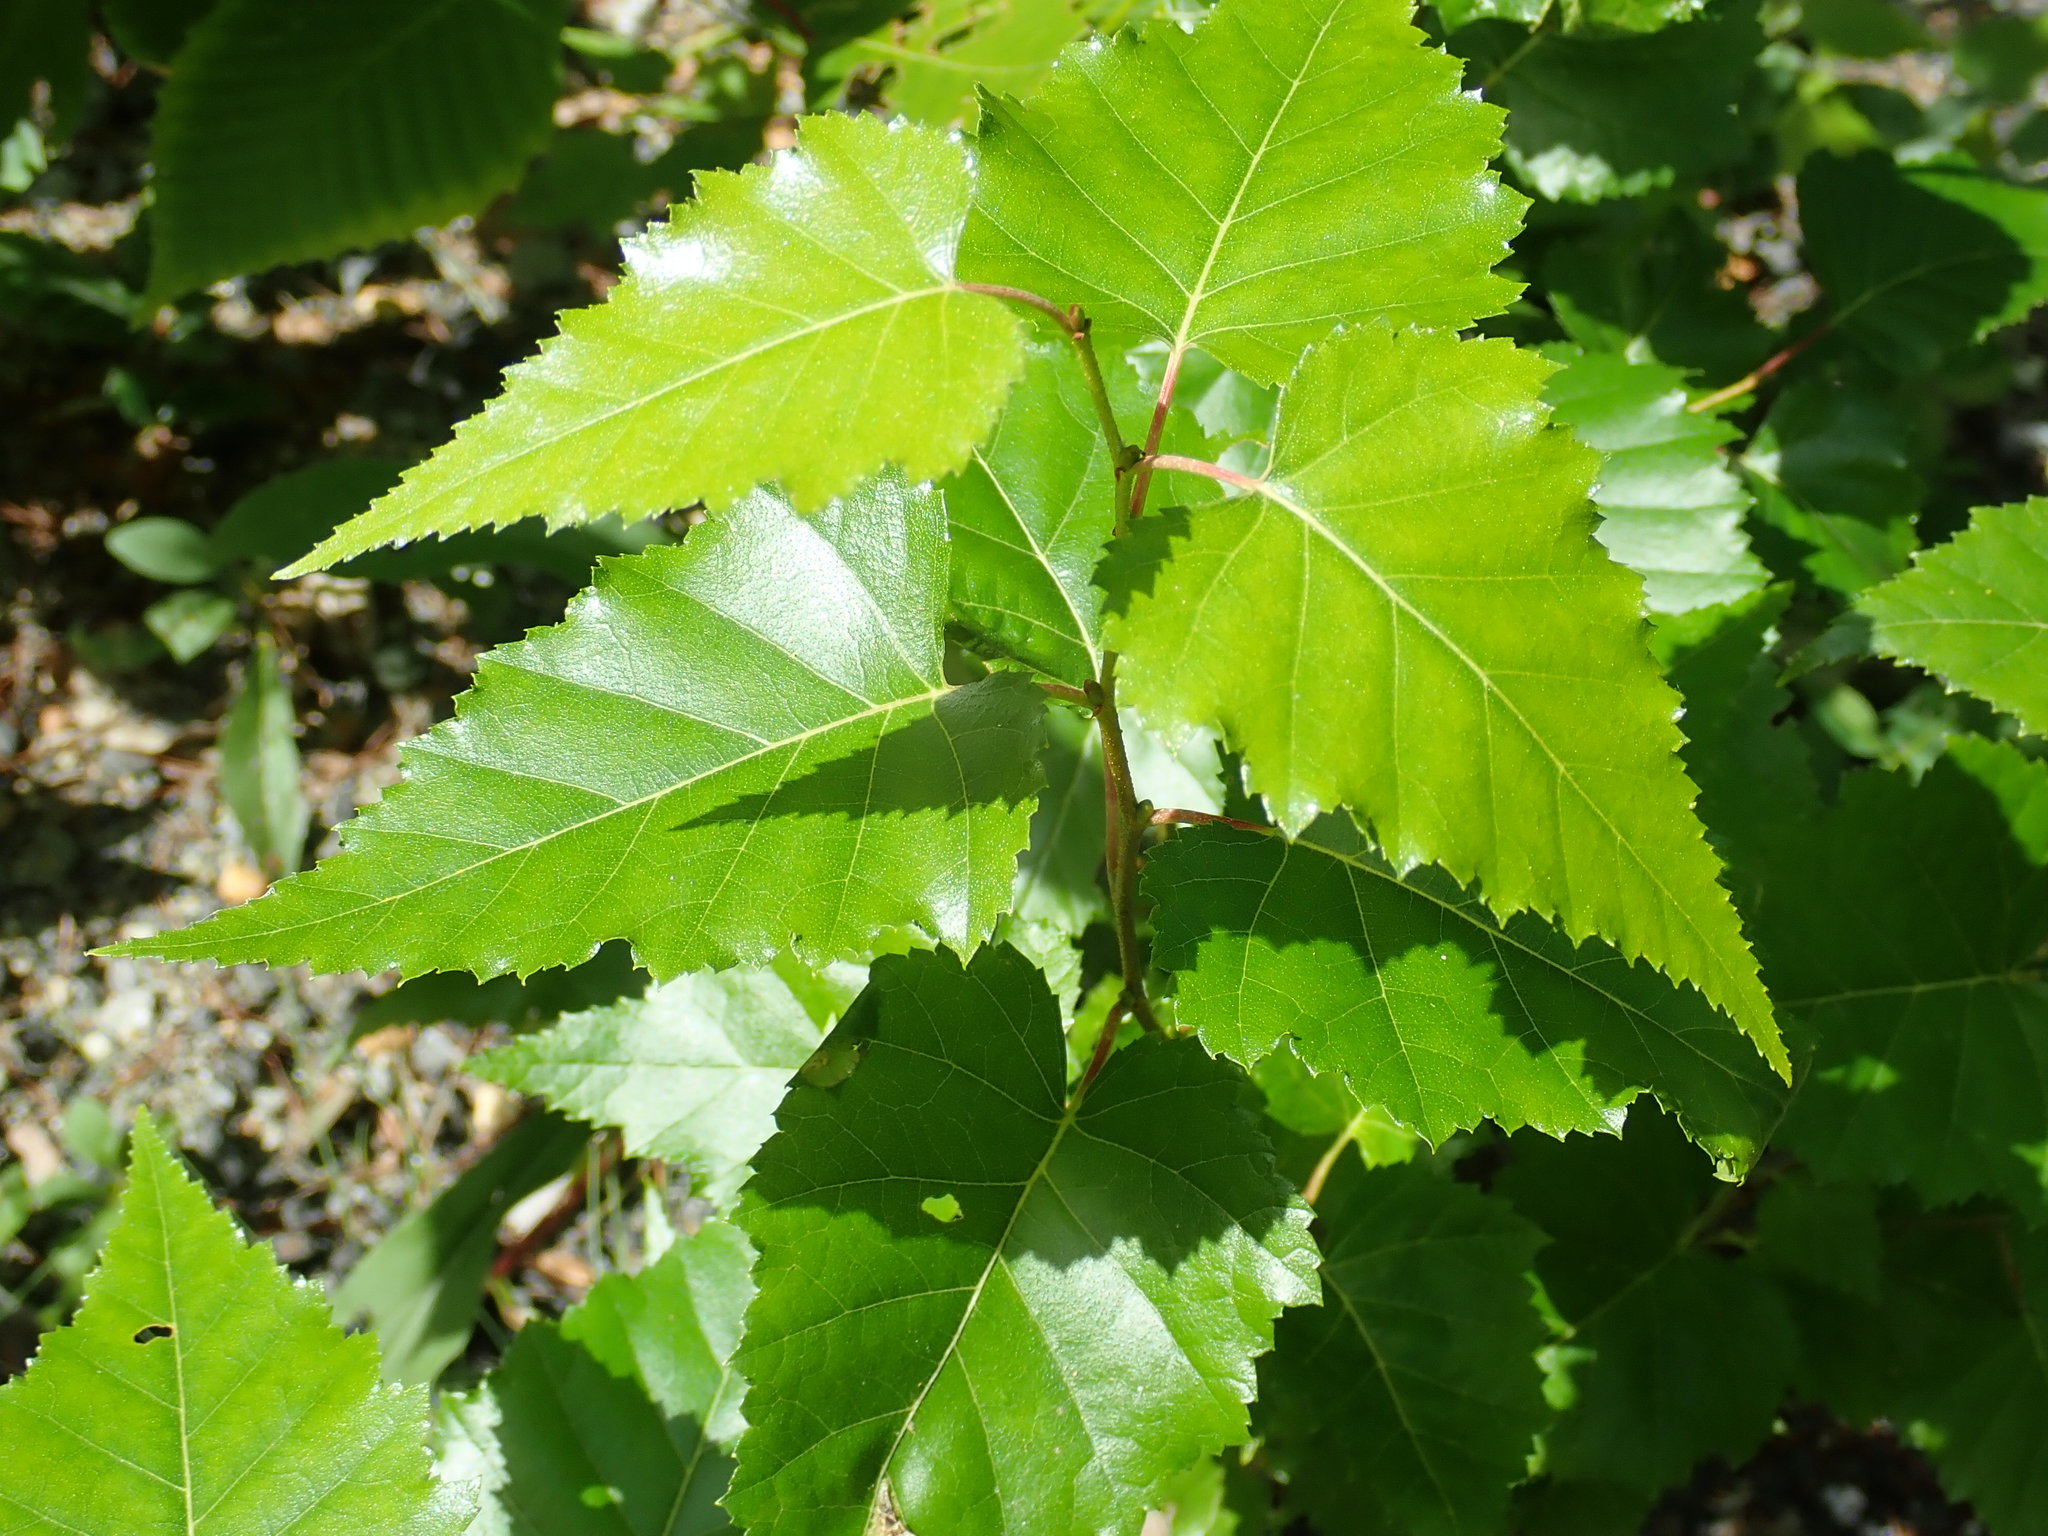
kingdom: Plantae
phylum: Tracheophyta
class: Magnoliopsida
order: Fagales
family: Betulaceae
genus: Betula
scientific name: Betula populifolia
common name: Fire birch
